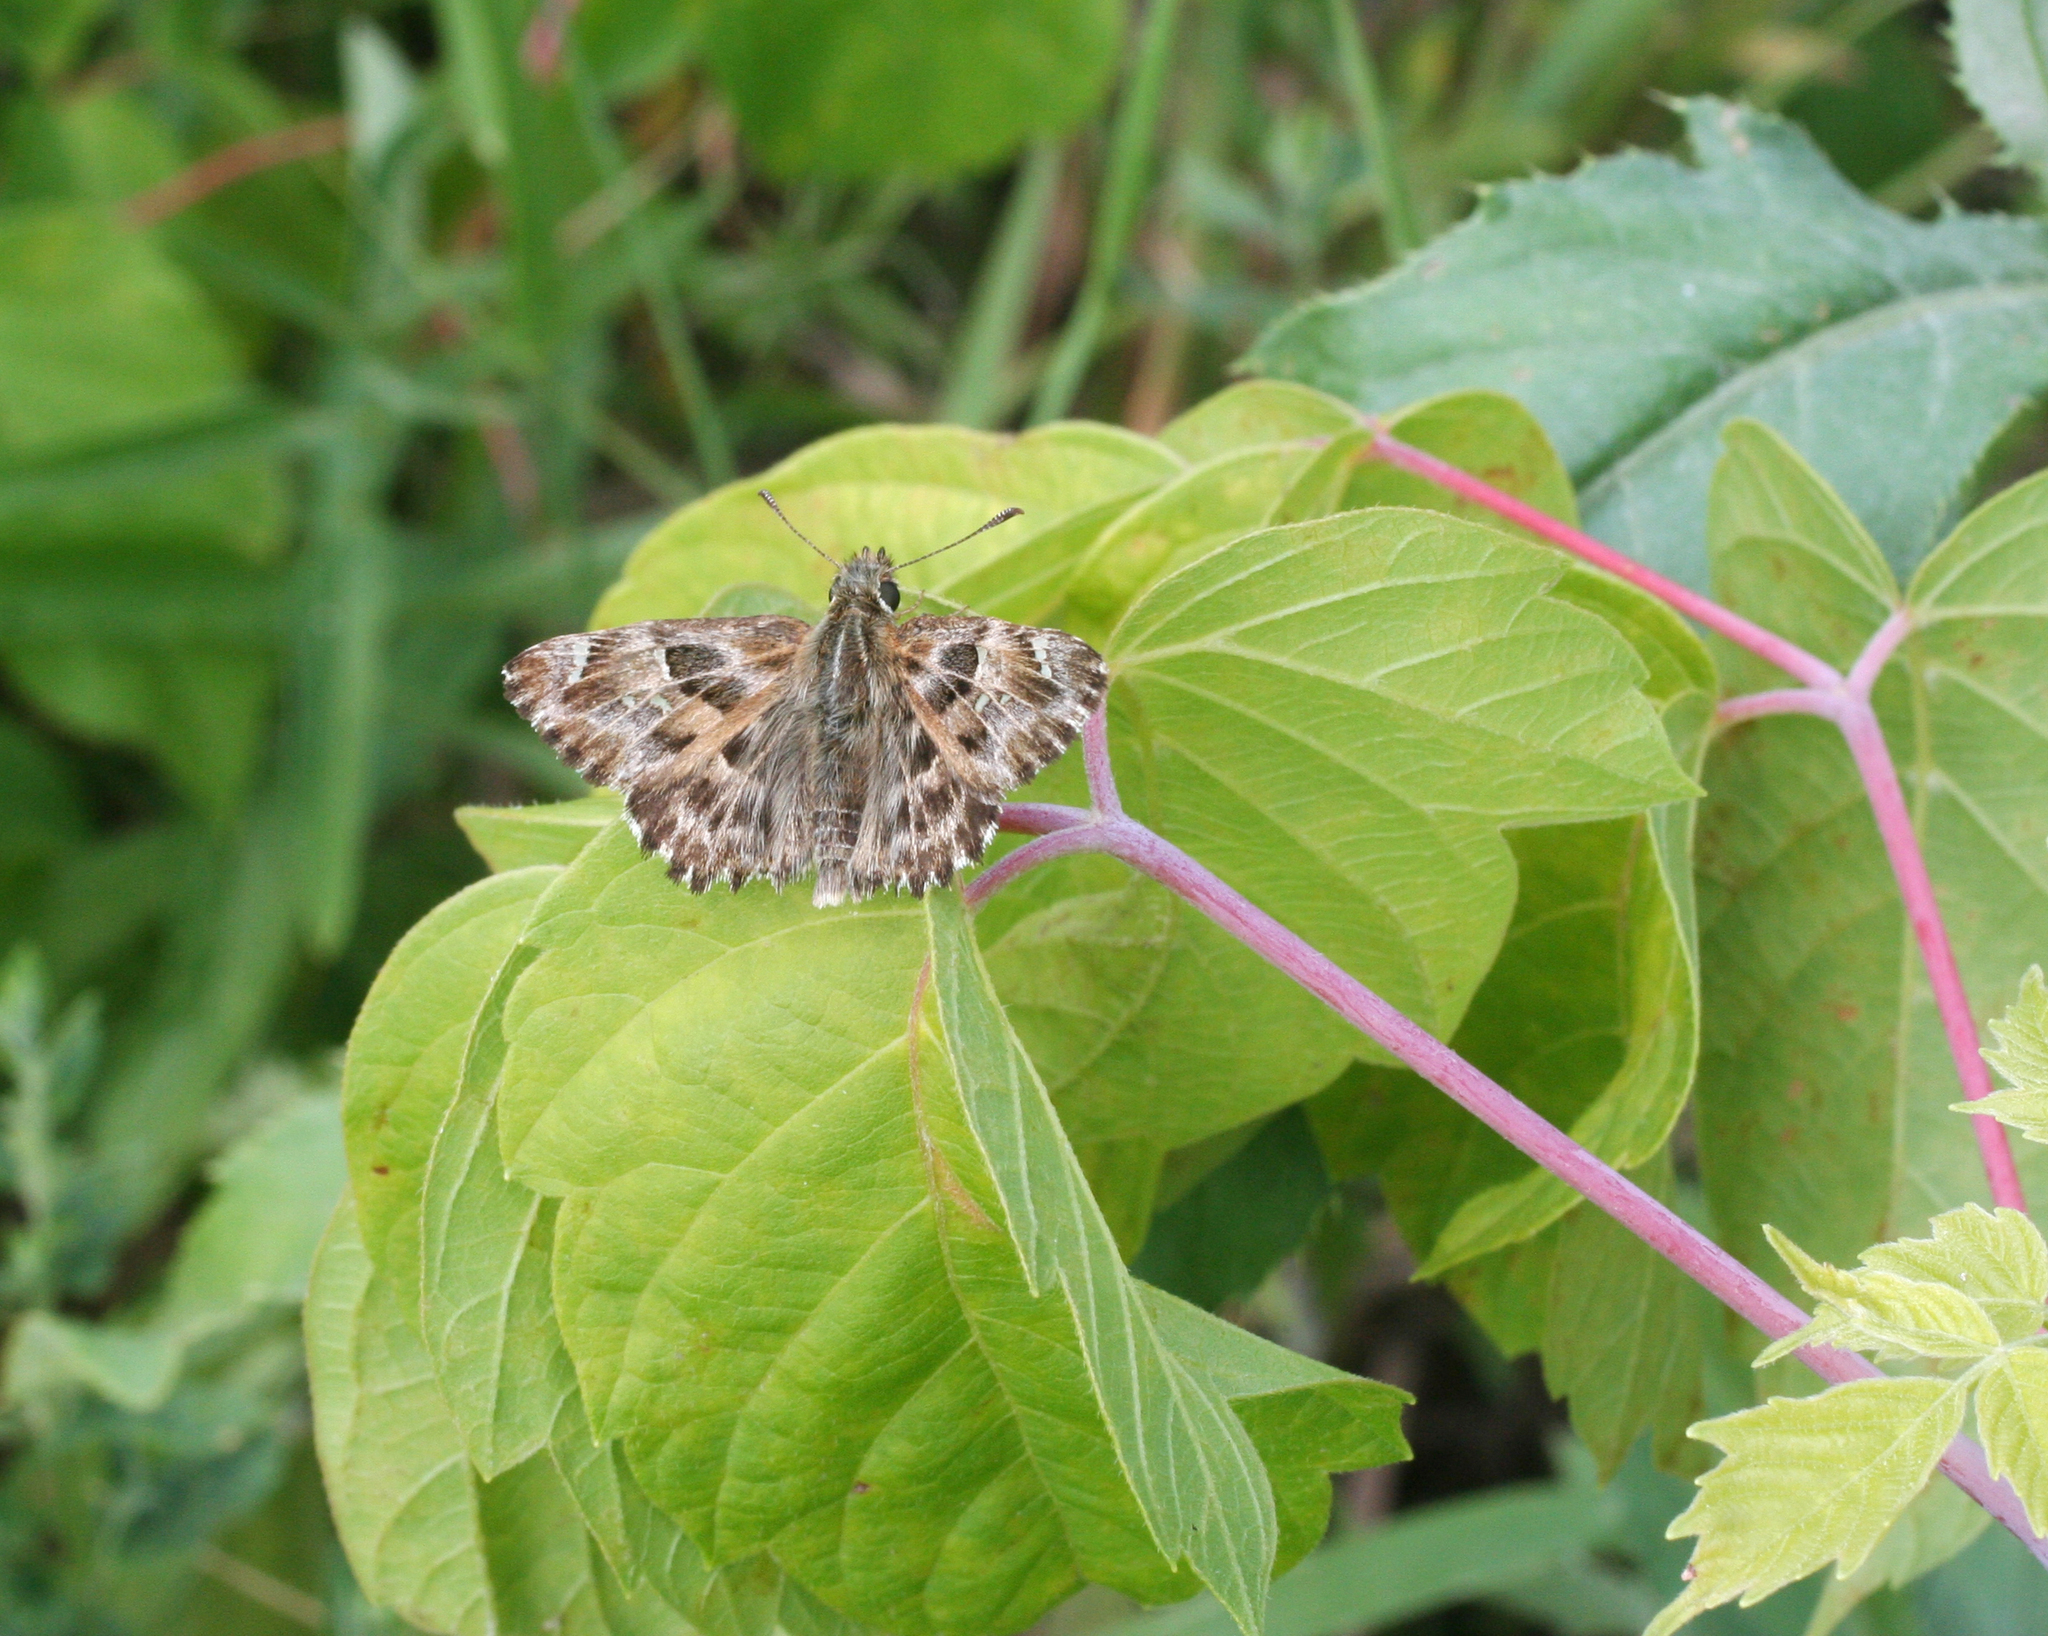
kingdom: Animalia
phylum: Arthropoda
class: Insecta
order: Lepidoptera
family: Hesperiidae
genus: Carcharodus
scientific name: Carcharodus alceae
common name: Mallow skipper
